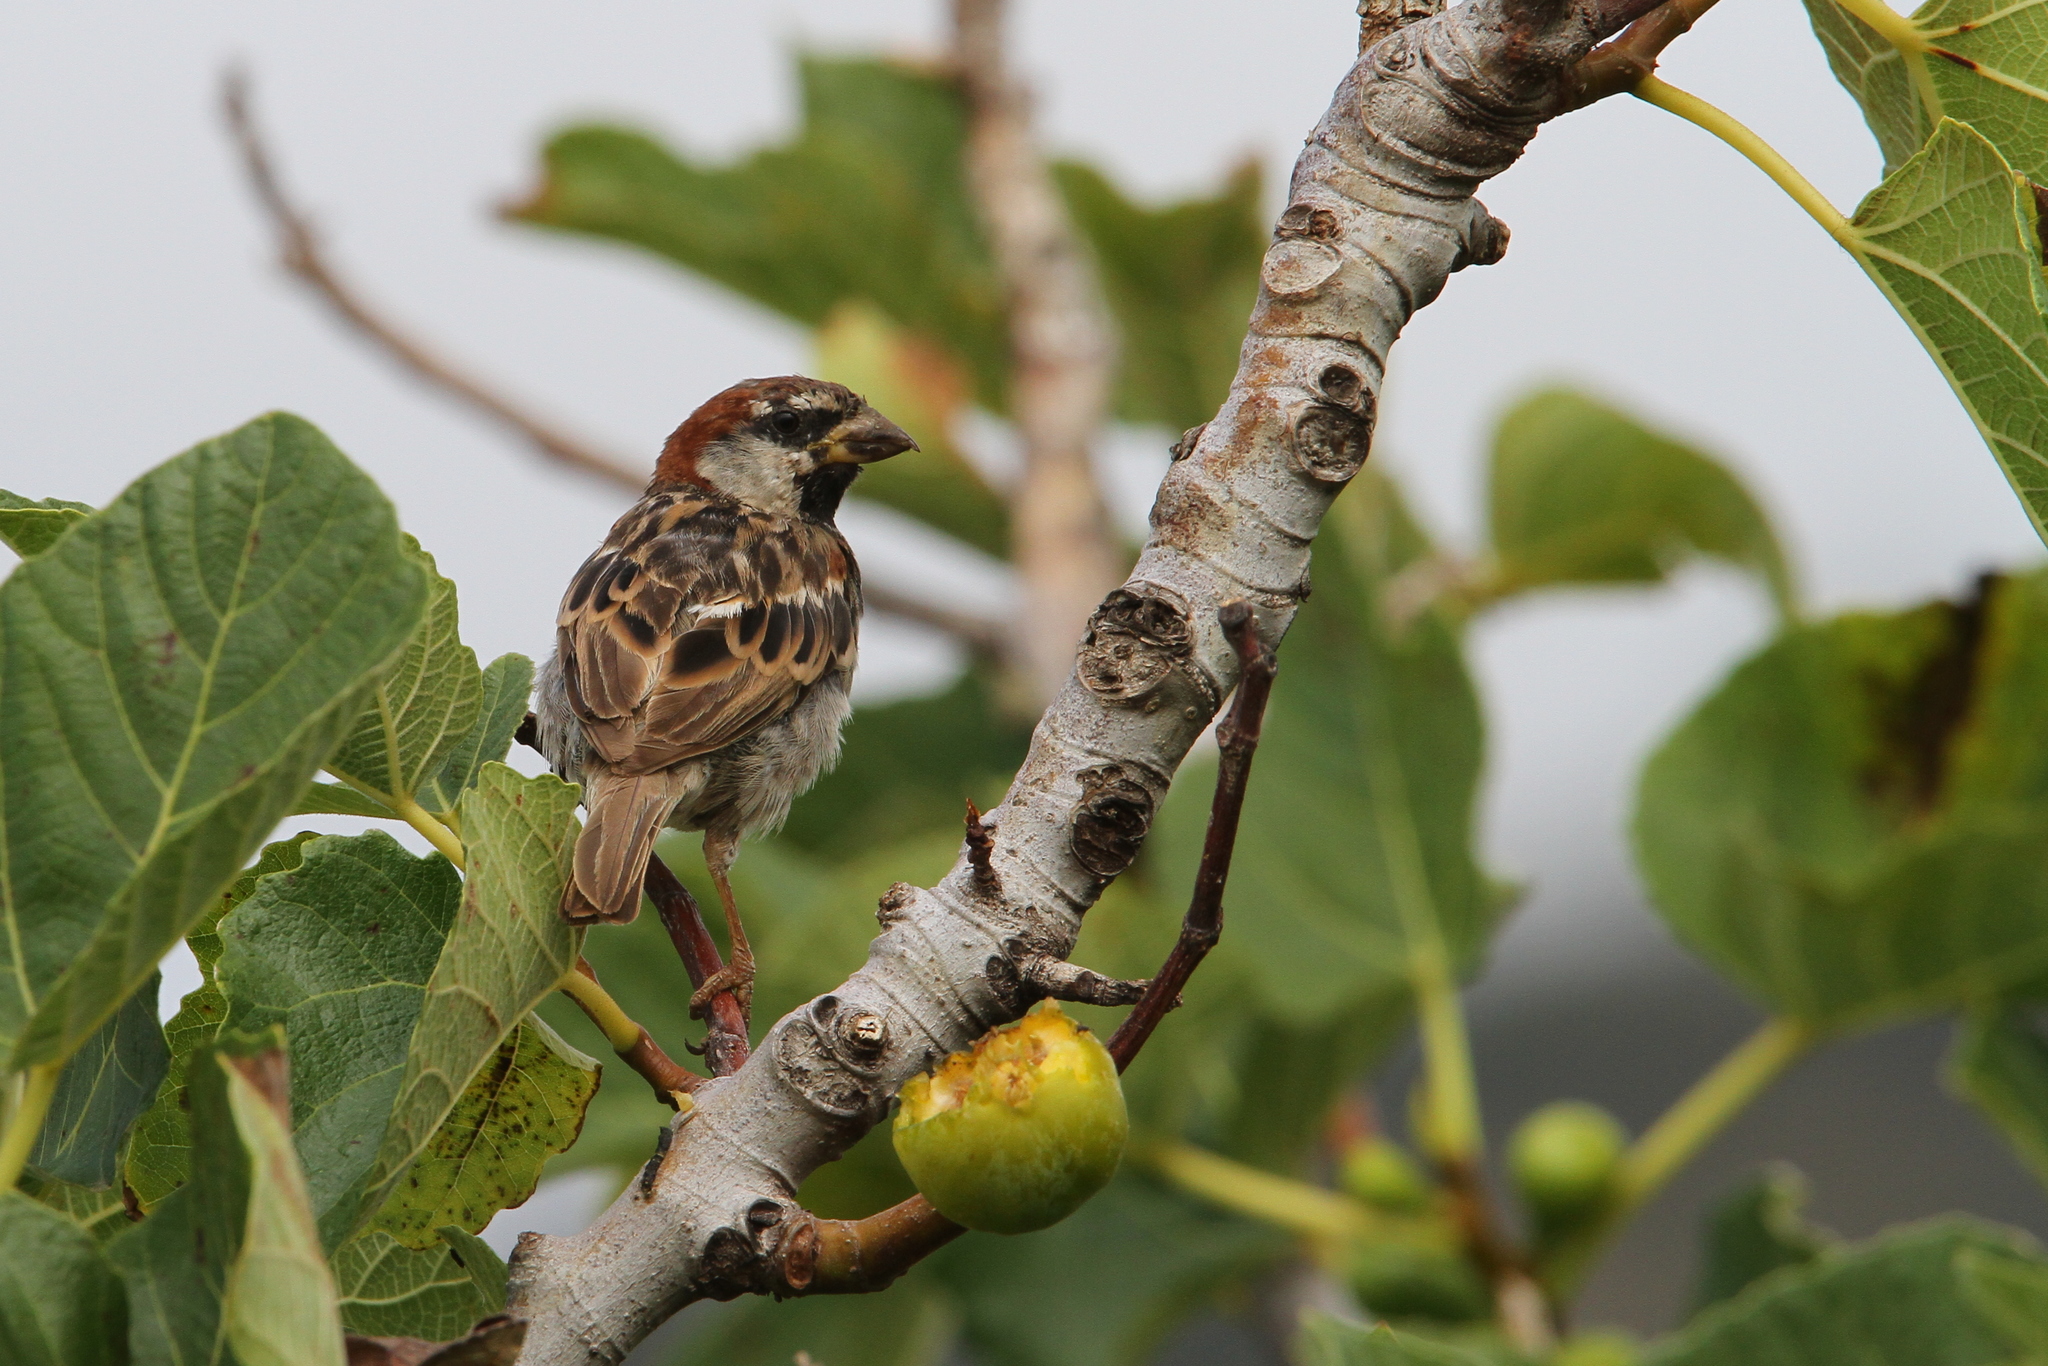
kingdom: Animalia
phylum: Chordata
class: Aves
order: Passeriformes
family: Passeridae
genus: Passer
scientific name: Passer hispaniolensis
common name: Spanish sparrow
